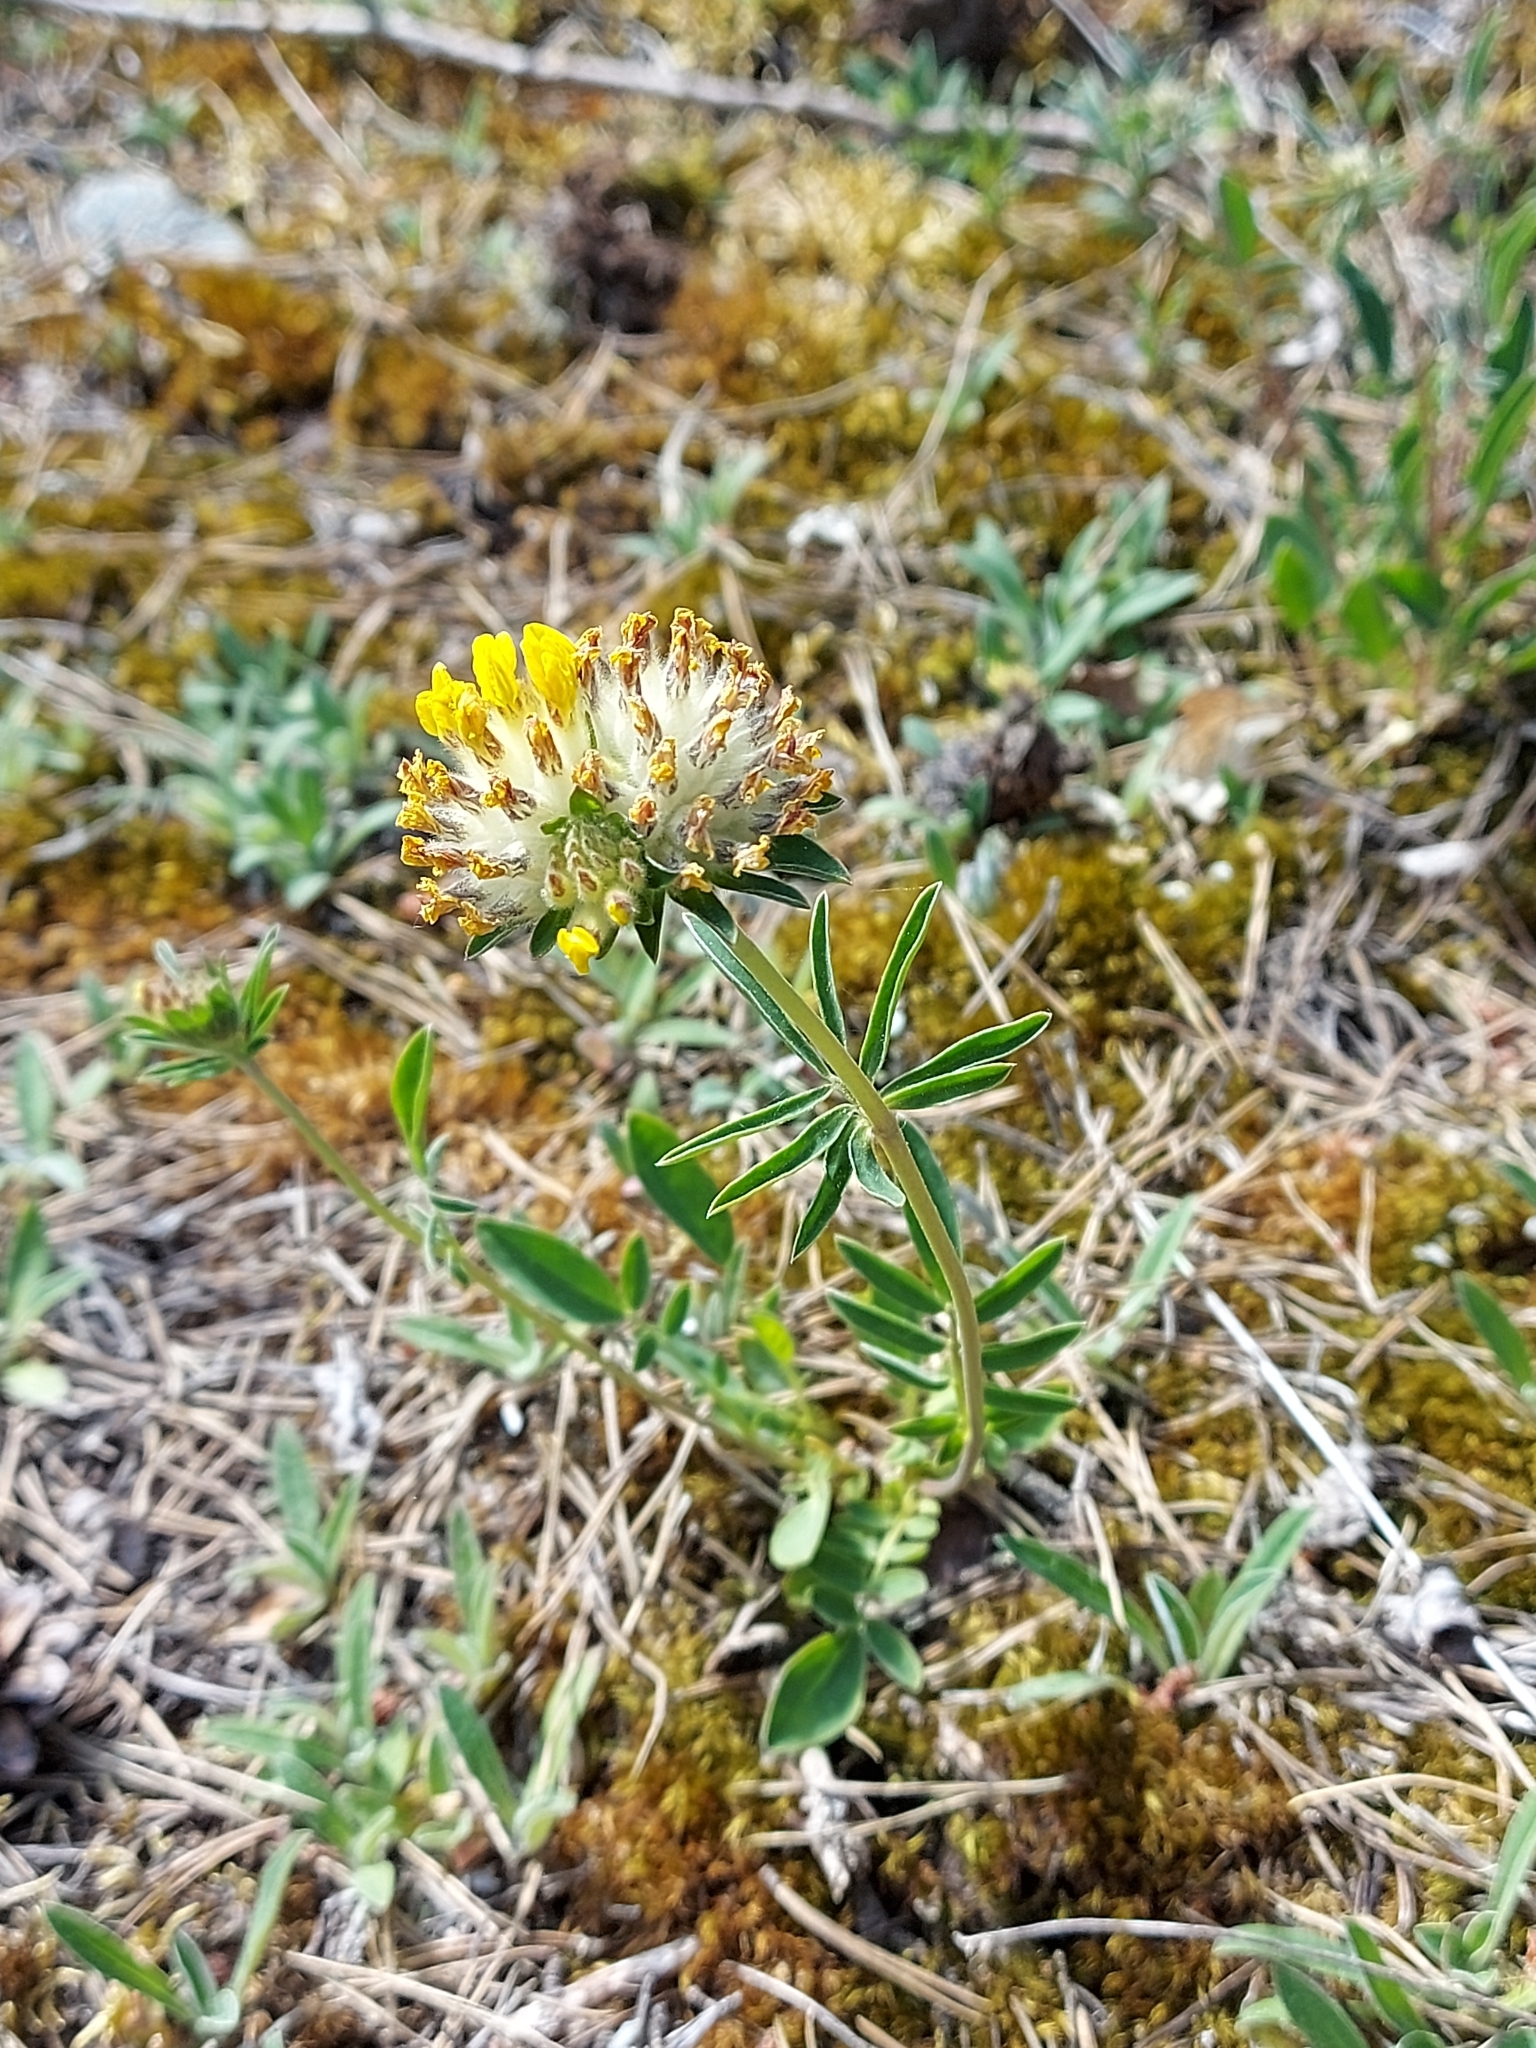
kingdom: Plantae
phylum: Tracheophyta
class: Magnoliopsida
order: Fabales
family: Fabaceae
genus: Anthyllis
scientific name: Anthyllis vulneraria
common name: Kidney vetch
